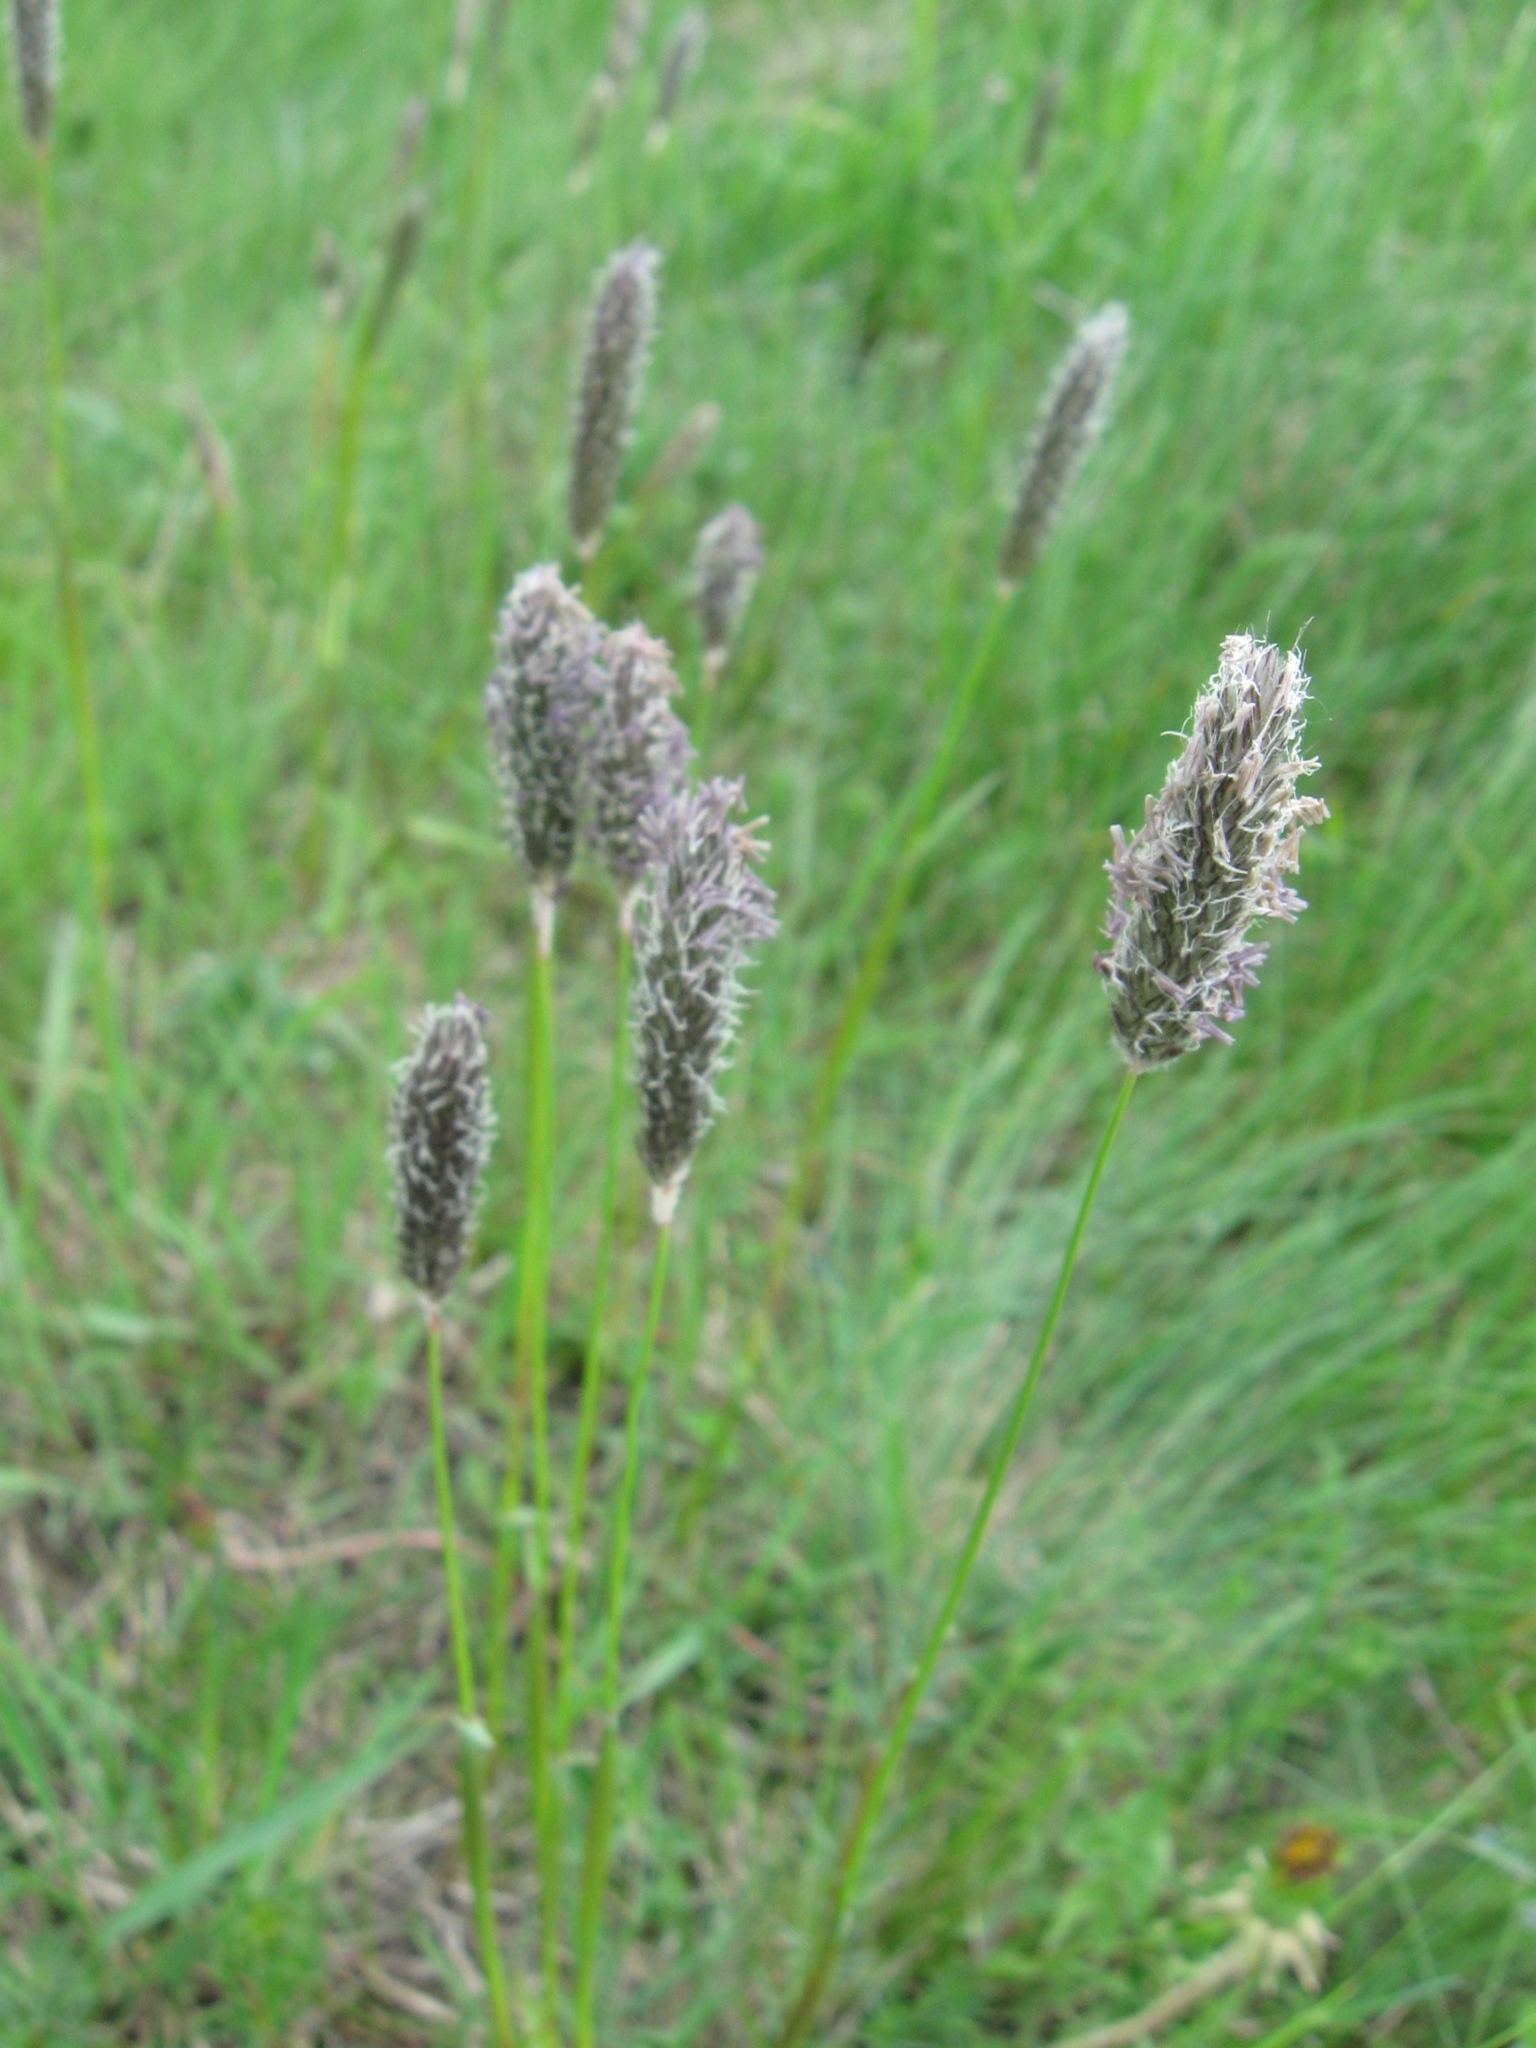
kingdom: Plantae
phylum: Tracheophyta
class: Liliopsida
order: Poales
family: Poaceae
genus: Alopecurus
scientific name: Alopecurus arundinaceus
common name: Creeping meadow foxtail
